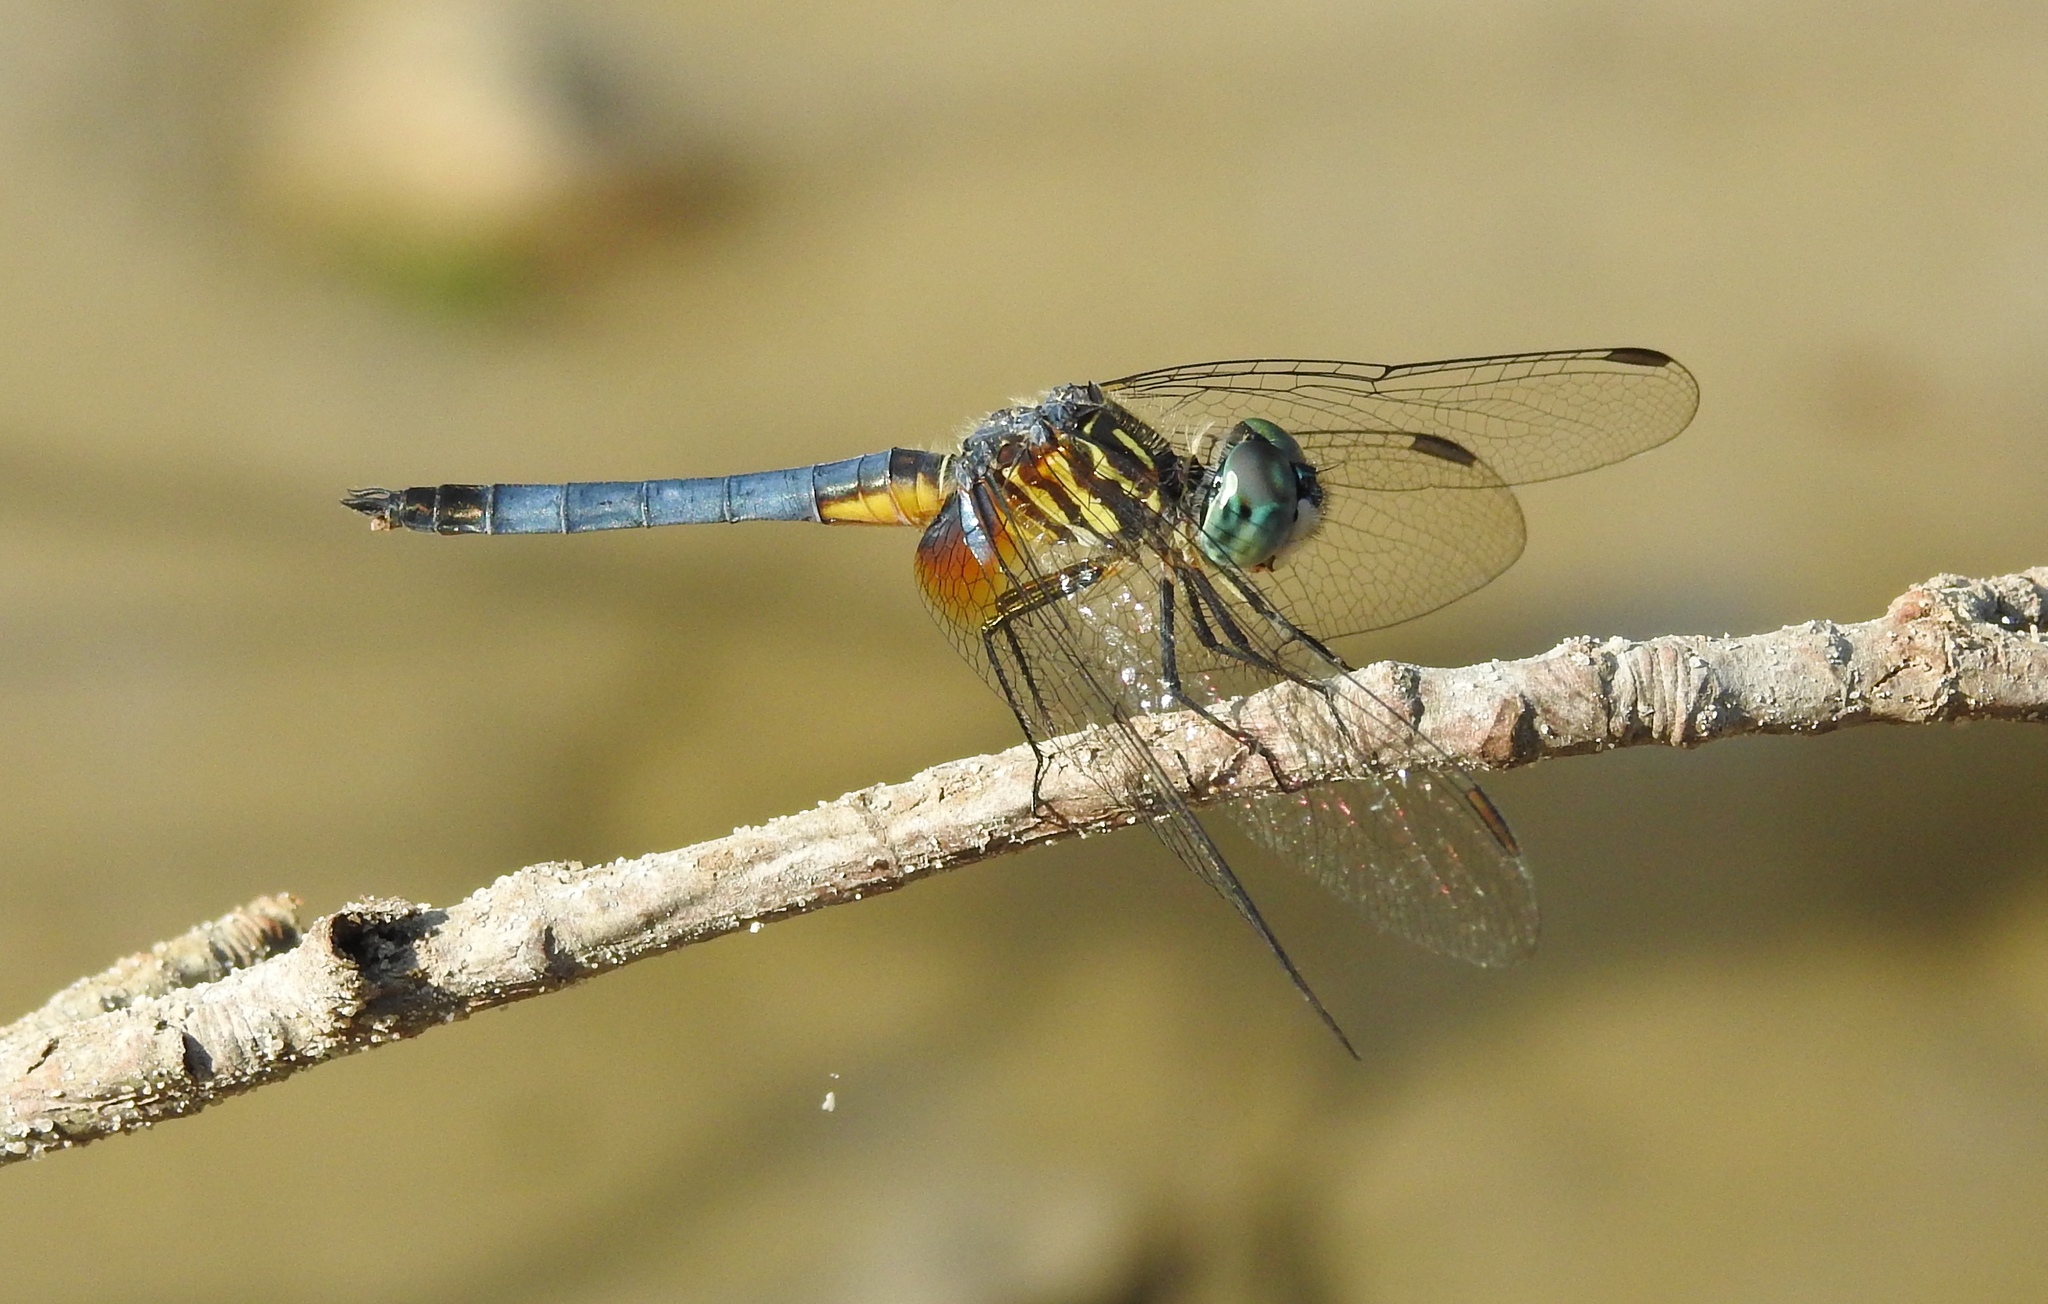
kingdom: Animalia
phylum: Arthropoda
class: Insecta
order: Odonata
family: Libellulidae
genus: Pachydiplax
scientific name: Pachydiplax longipennis
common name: Blue dasher
